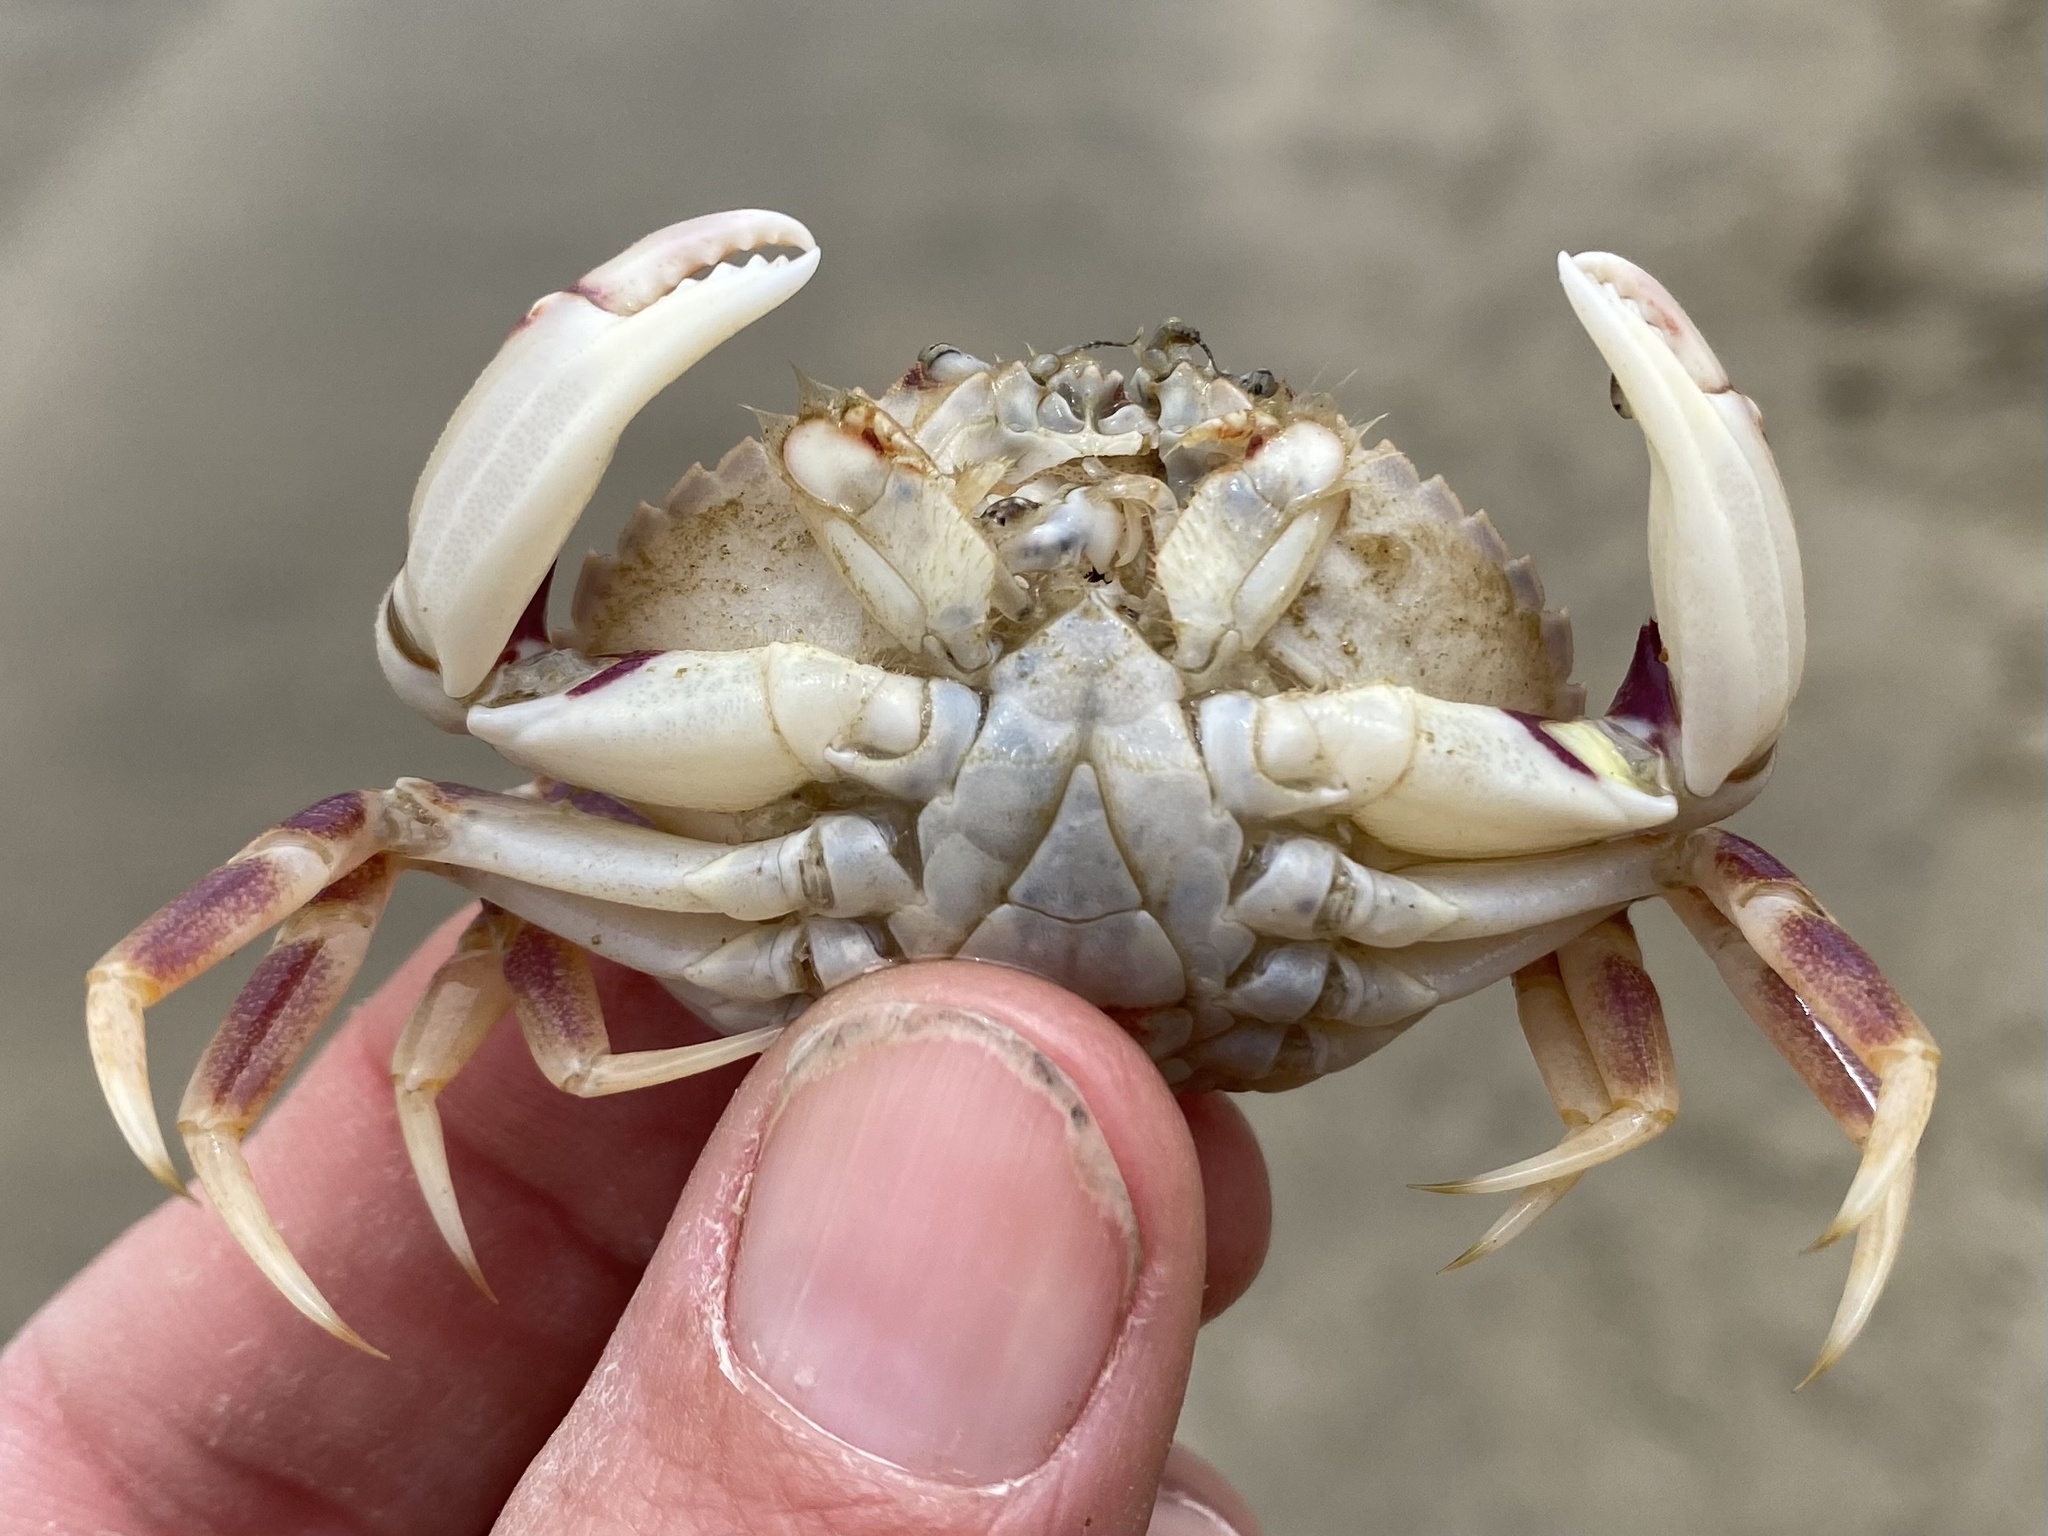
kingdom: Animalia
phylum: Arthropoda
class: Malacostraca
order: Decapoda
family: Cancridae
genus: Metacarcinus
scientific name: Metacarcinus gracilis
